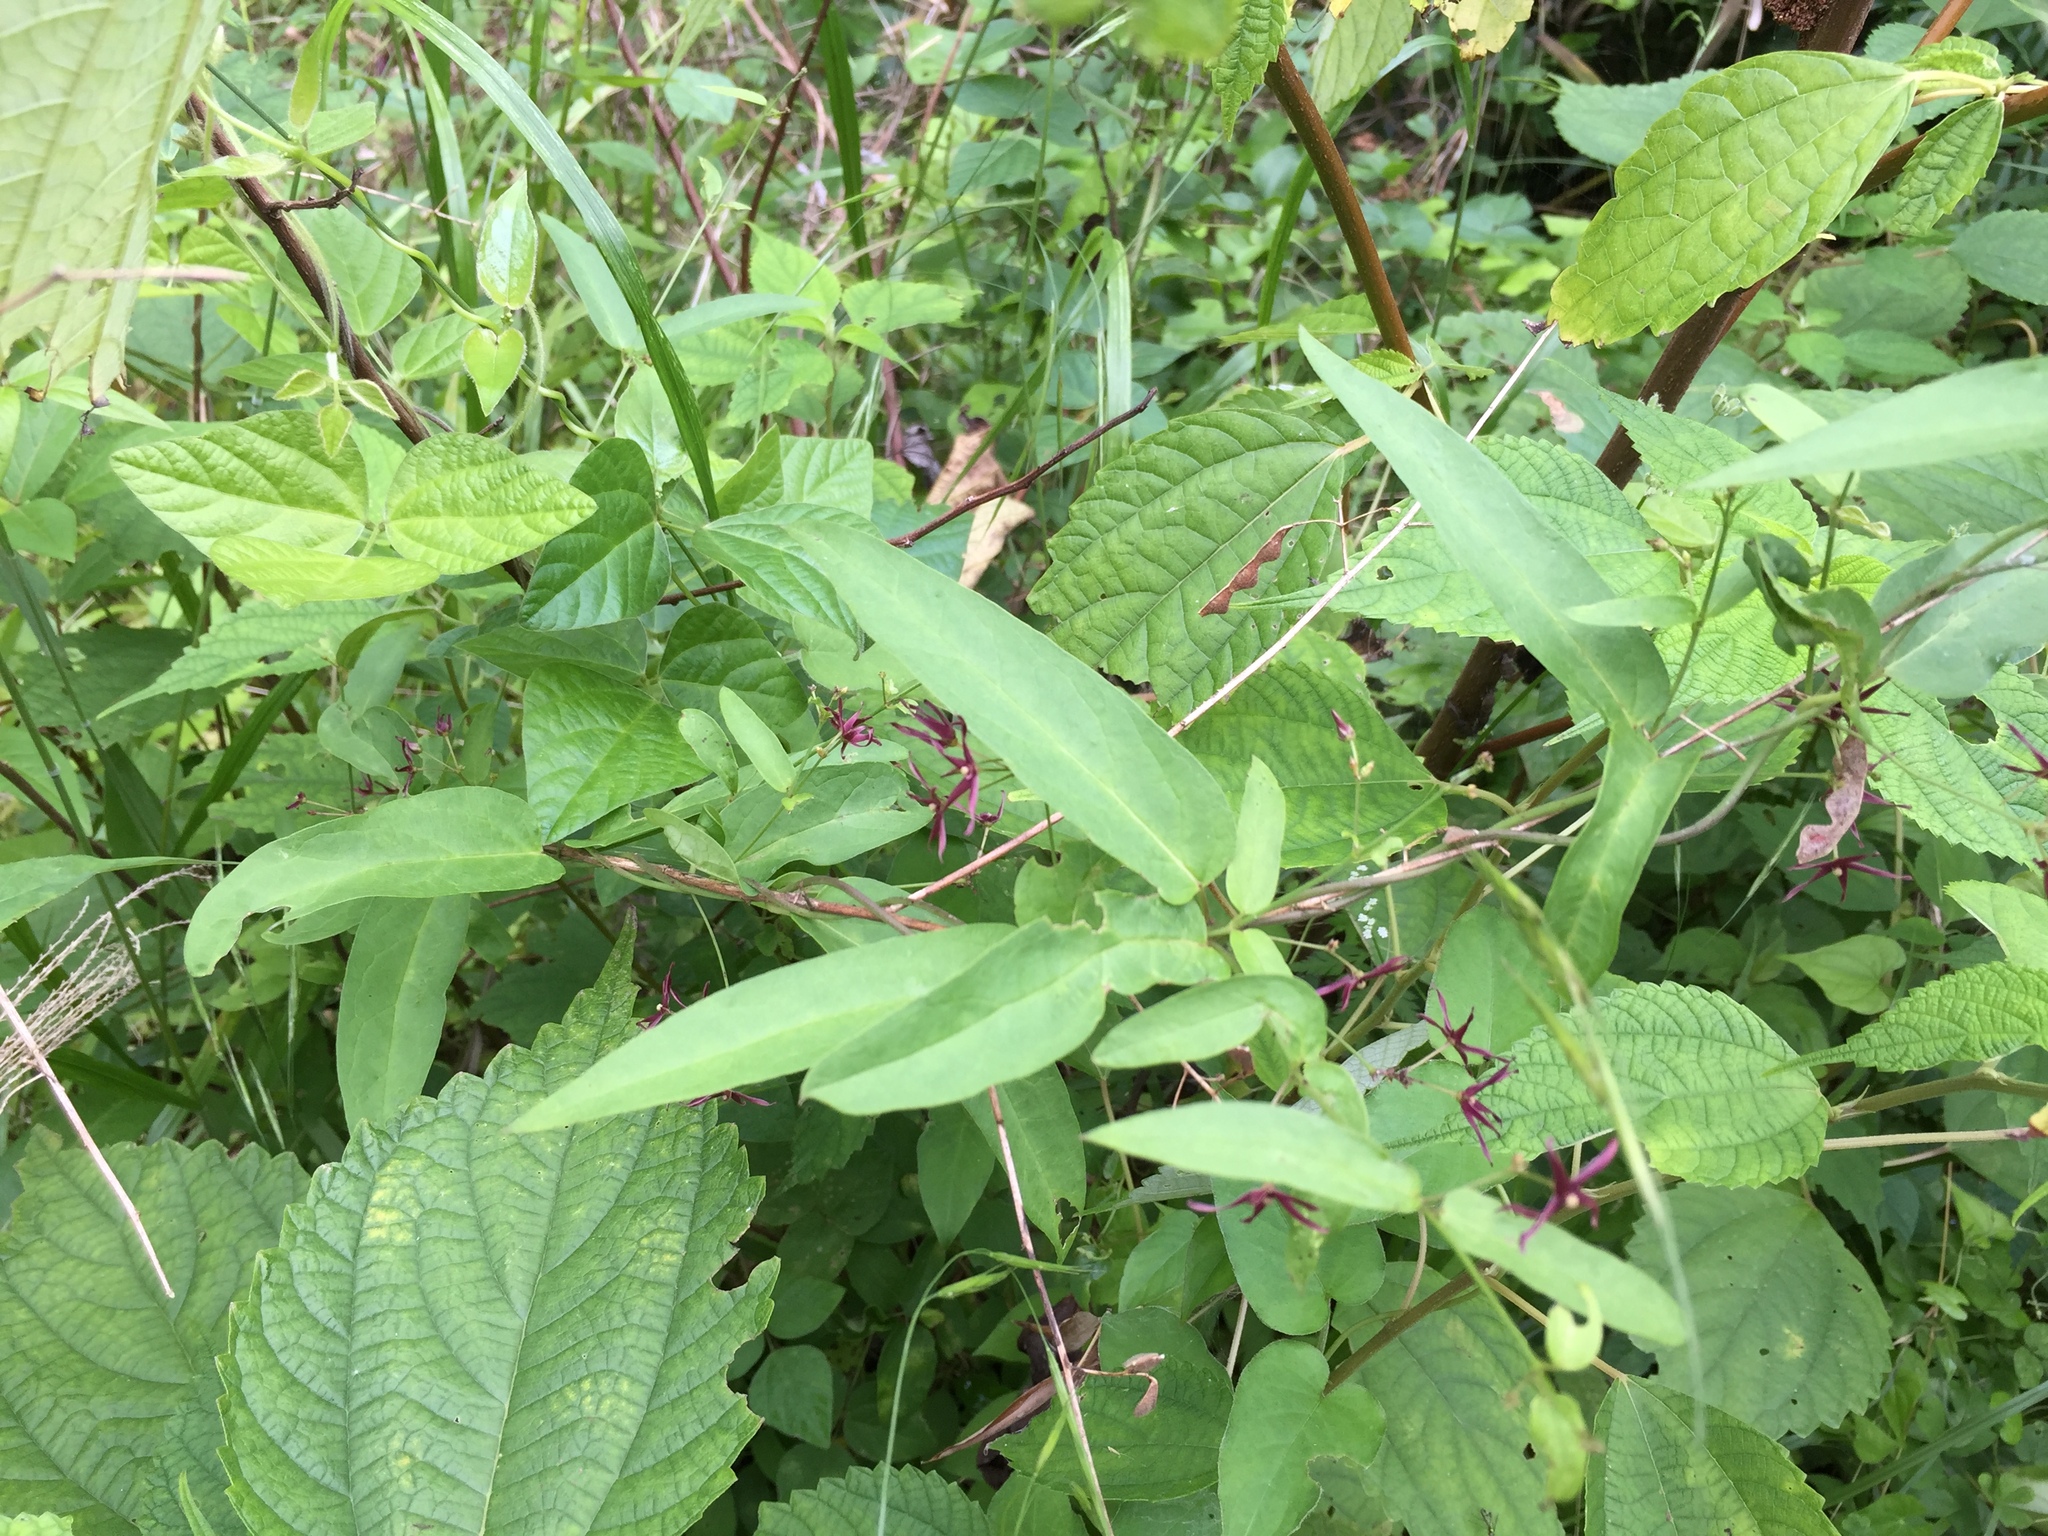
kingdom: Plantae
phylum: Tracheophyta
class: Magnoliopsida
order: Gentianales
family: Apocynaceae
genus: Vincetoxicum
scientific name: Vincetoxicum sublanceolatum
